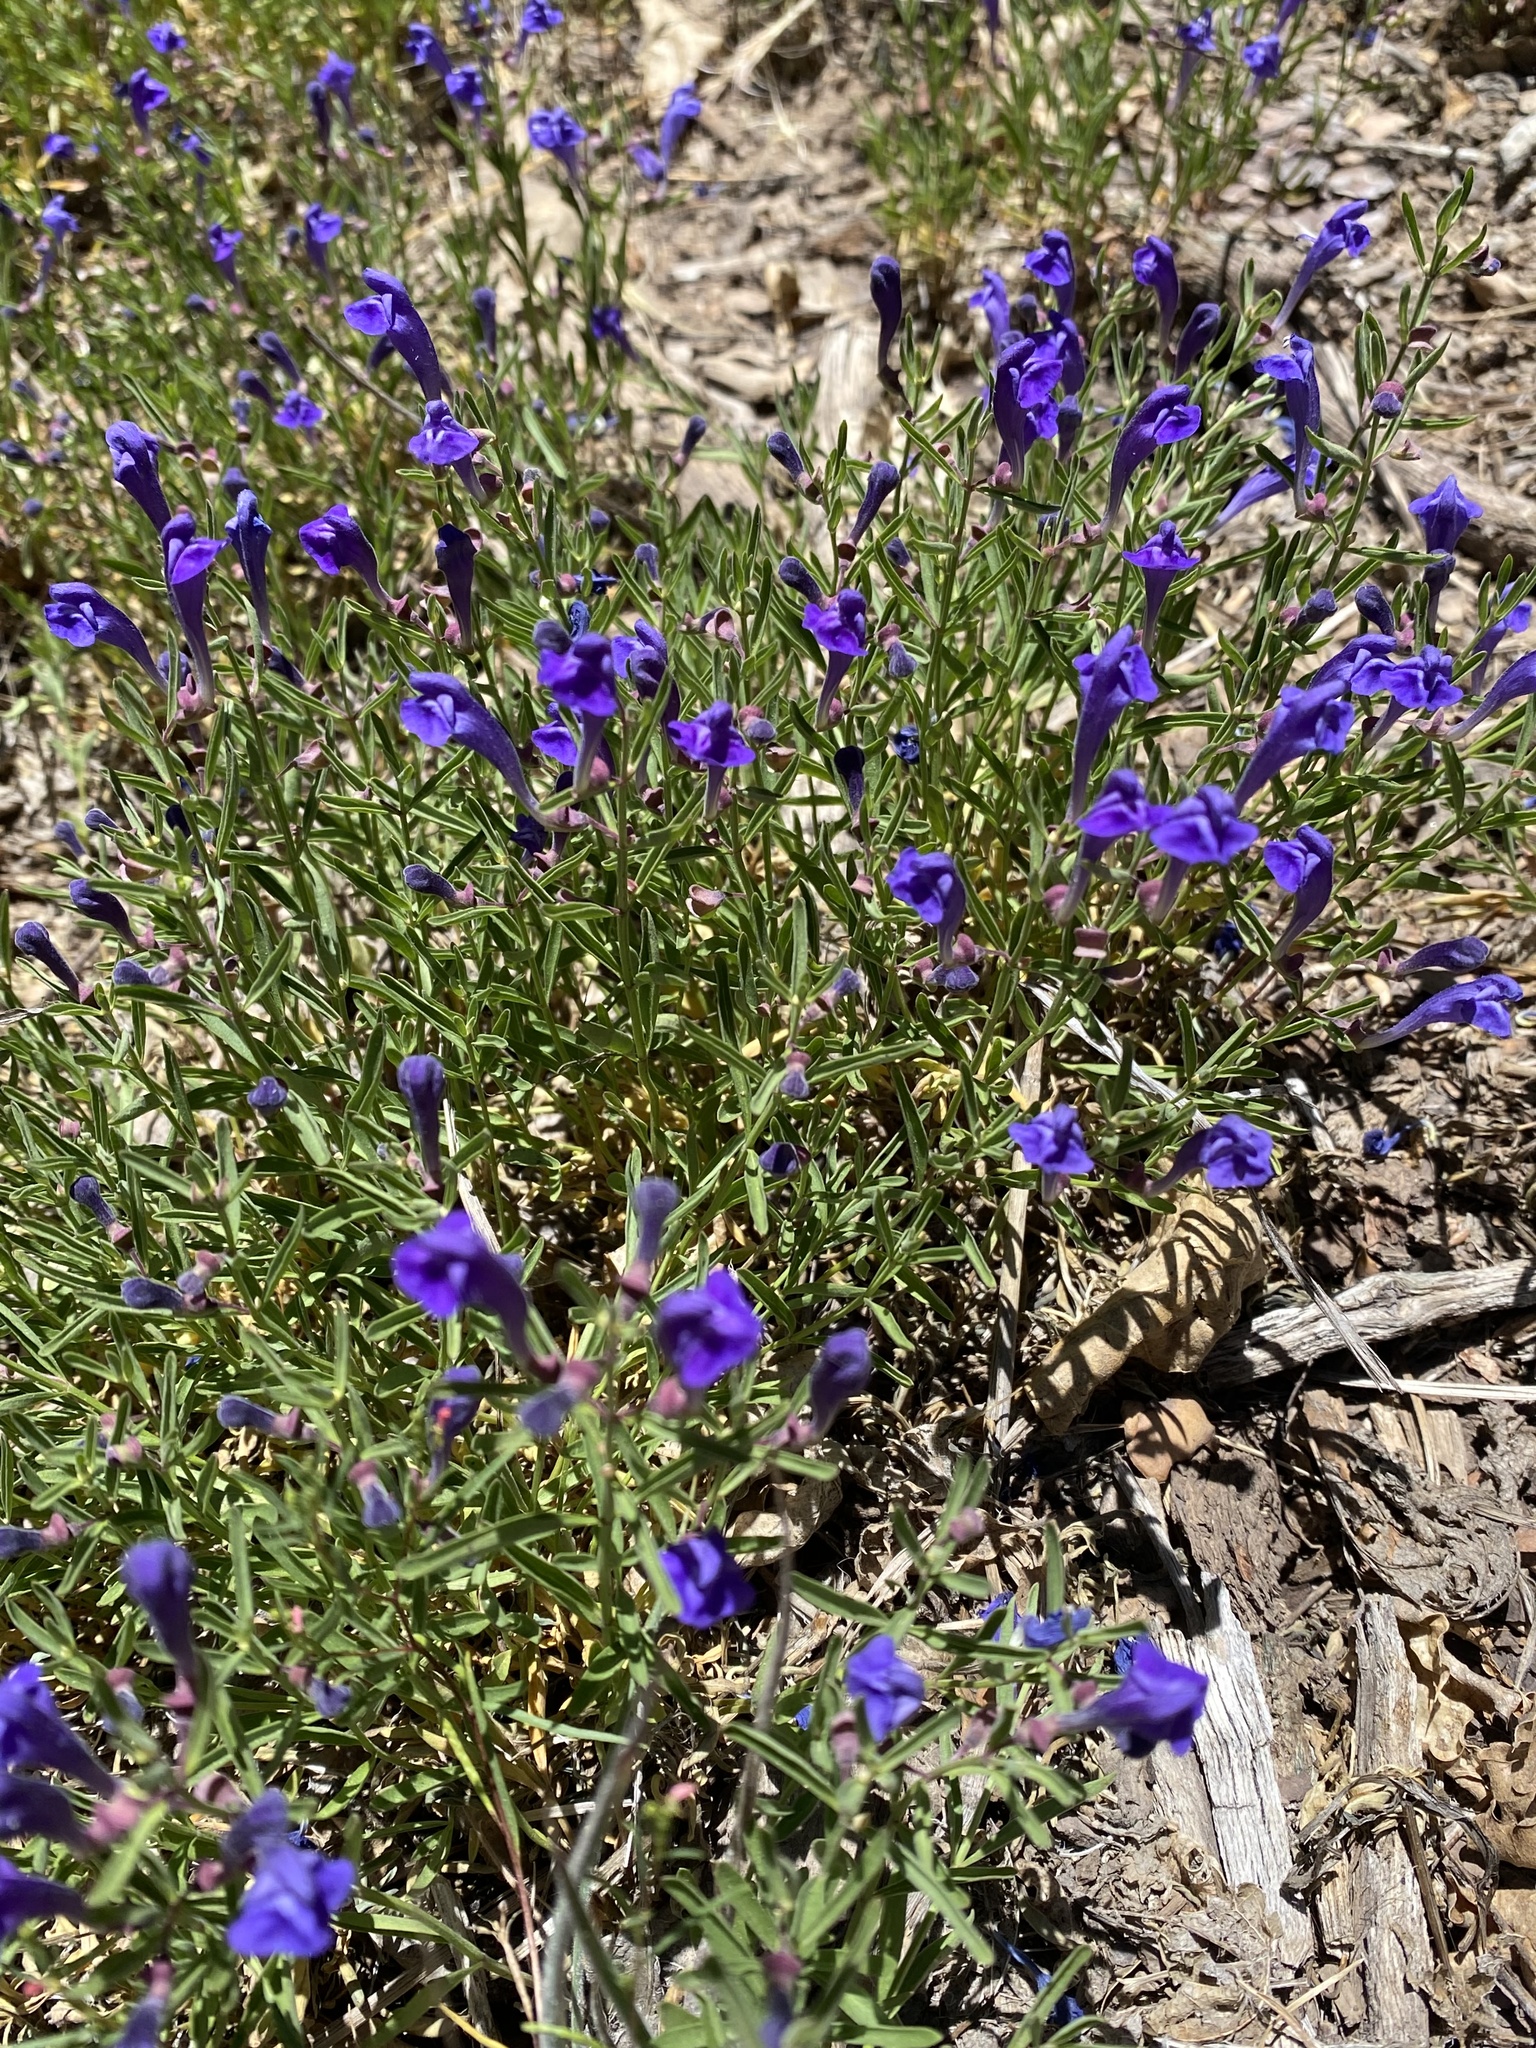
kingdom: Plantae
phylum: Tracheophyta
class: Magnoliopsida
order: Lamiales
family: Lamiaceae
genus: Scutellaria
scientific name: Scutellaria siphocampyloides
